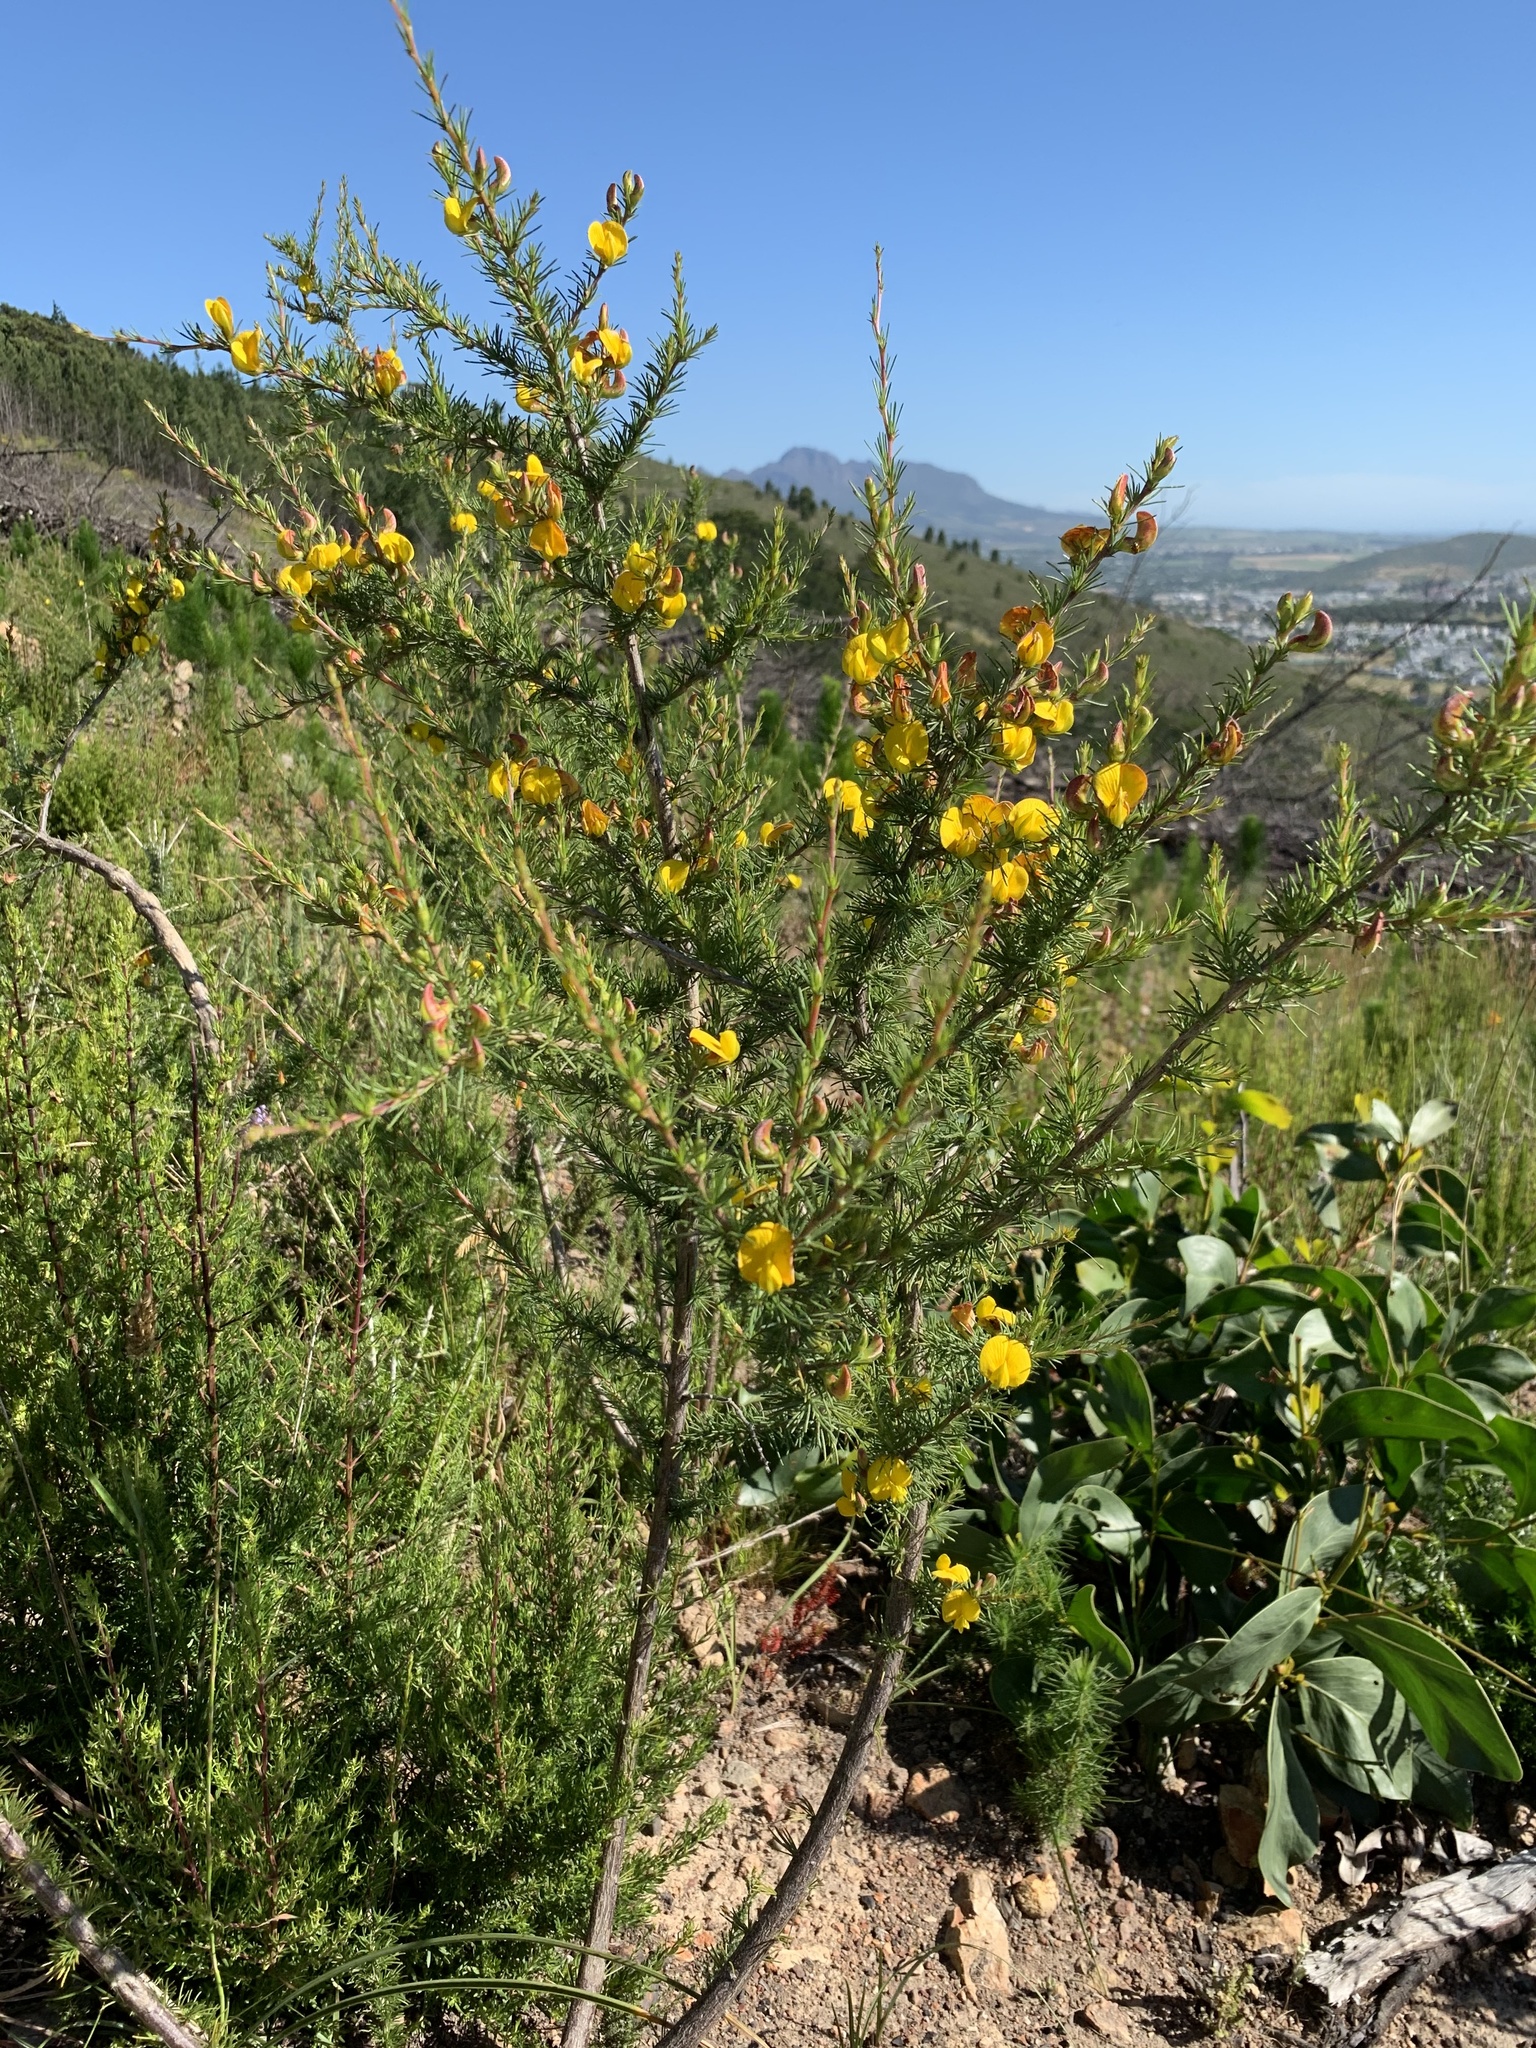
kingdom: Plantae
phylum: Tracheophyta
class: Magnoliopsida
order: Fabales
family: Fabaceae
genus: Aspalathus
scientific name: Aspalathus uniflora
